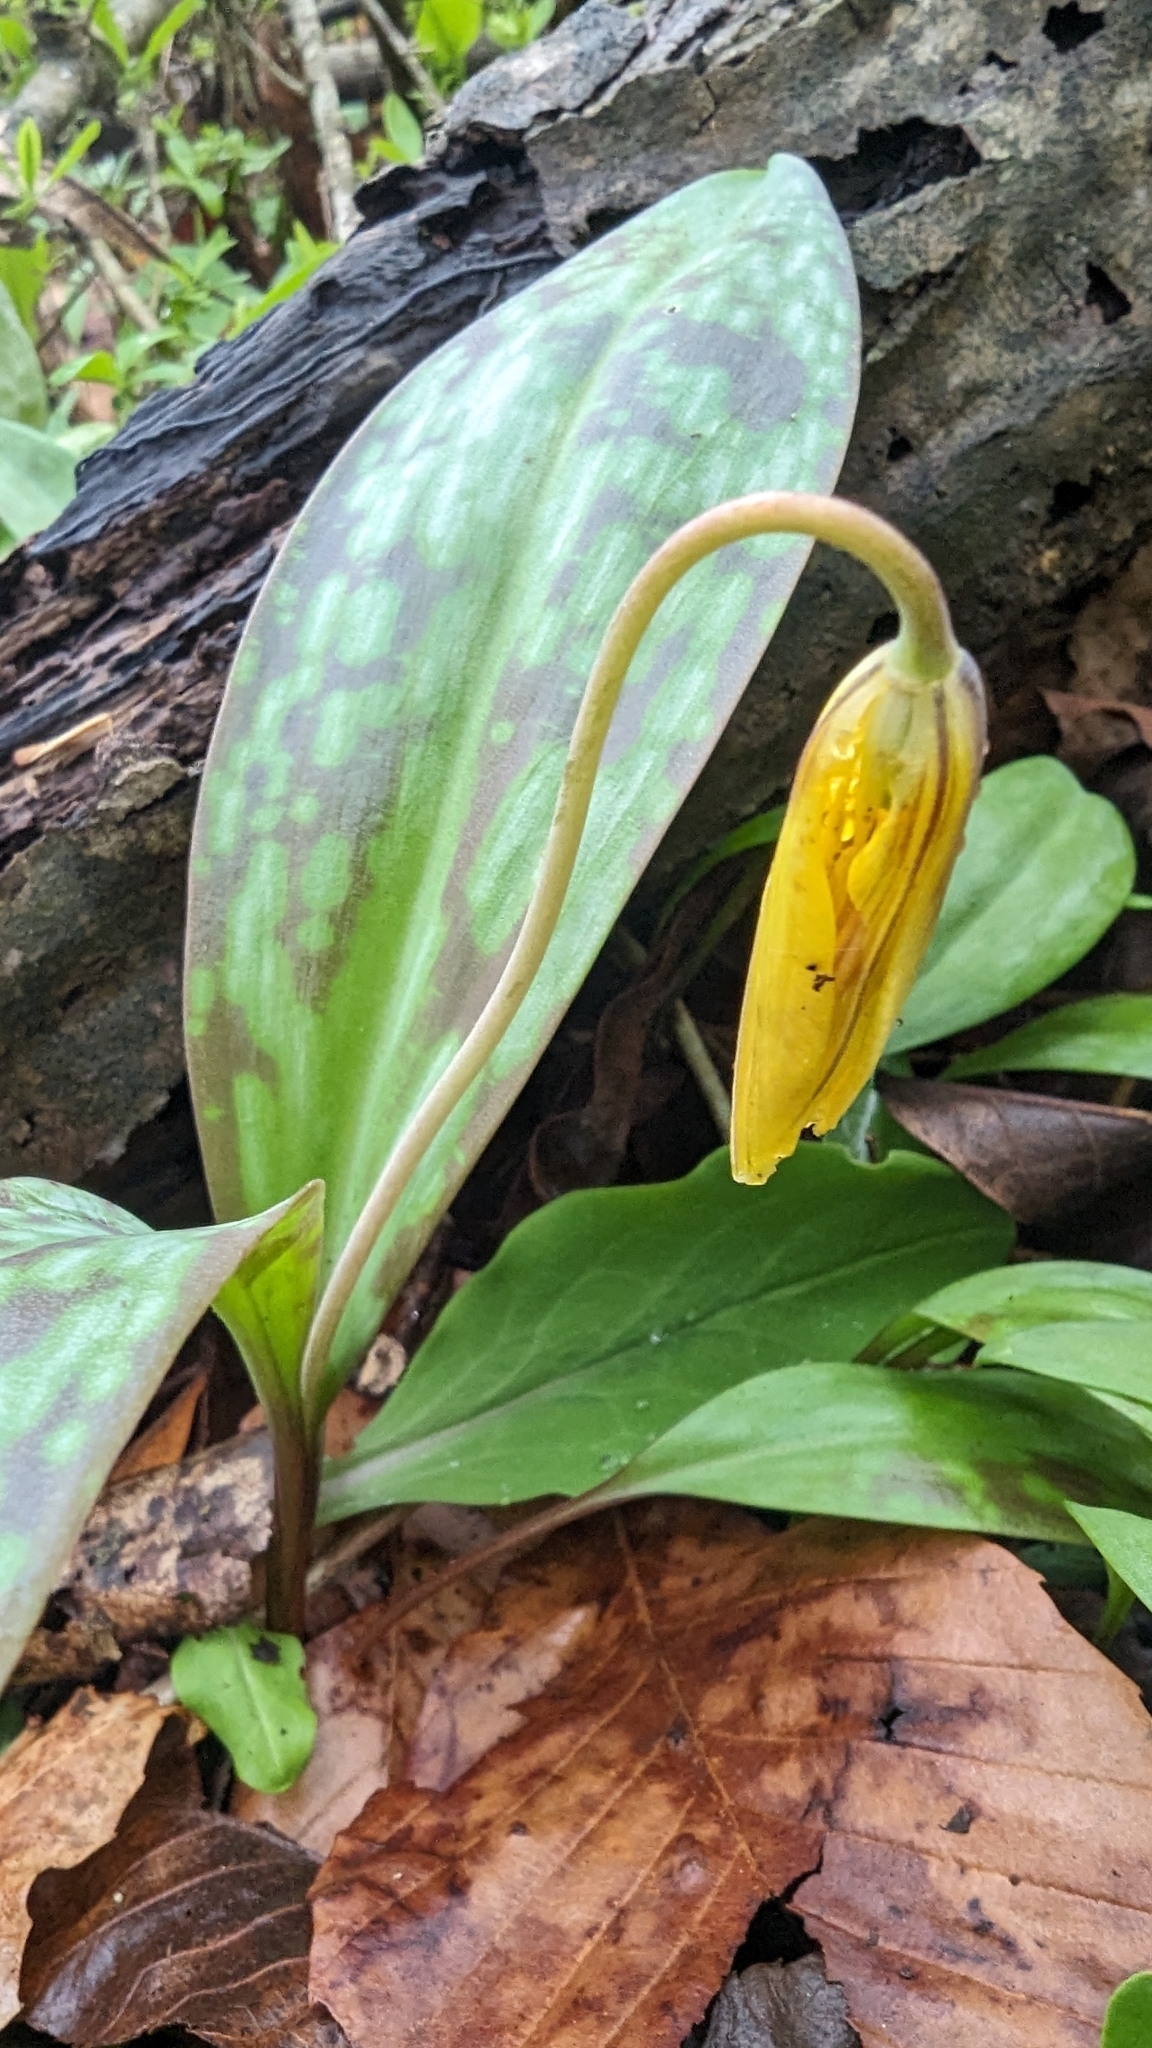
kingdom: Plantae
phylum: Tracheophyta
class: Liliopsida
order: Liliales
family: Liliaceae
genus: Erythronium
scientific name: Erythronium americanum
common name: Yellow adder's-tongue
